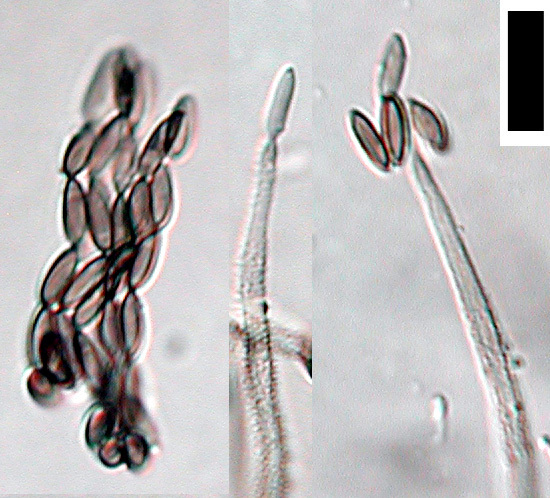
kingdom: Fungi
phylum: Ascomycota
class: Sordariomycetes
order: Hypocreales
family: Bionectriaceae
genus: Gliomastix
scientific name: Gliomastix luzulae
